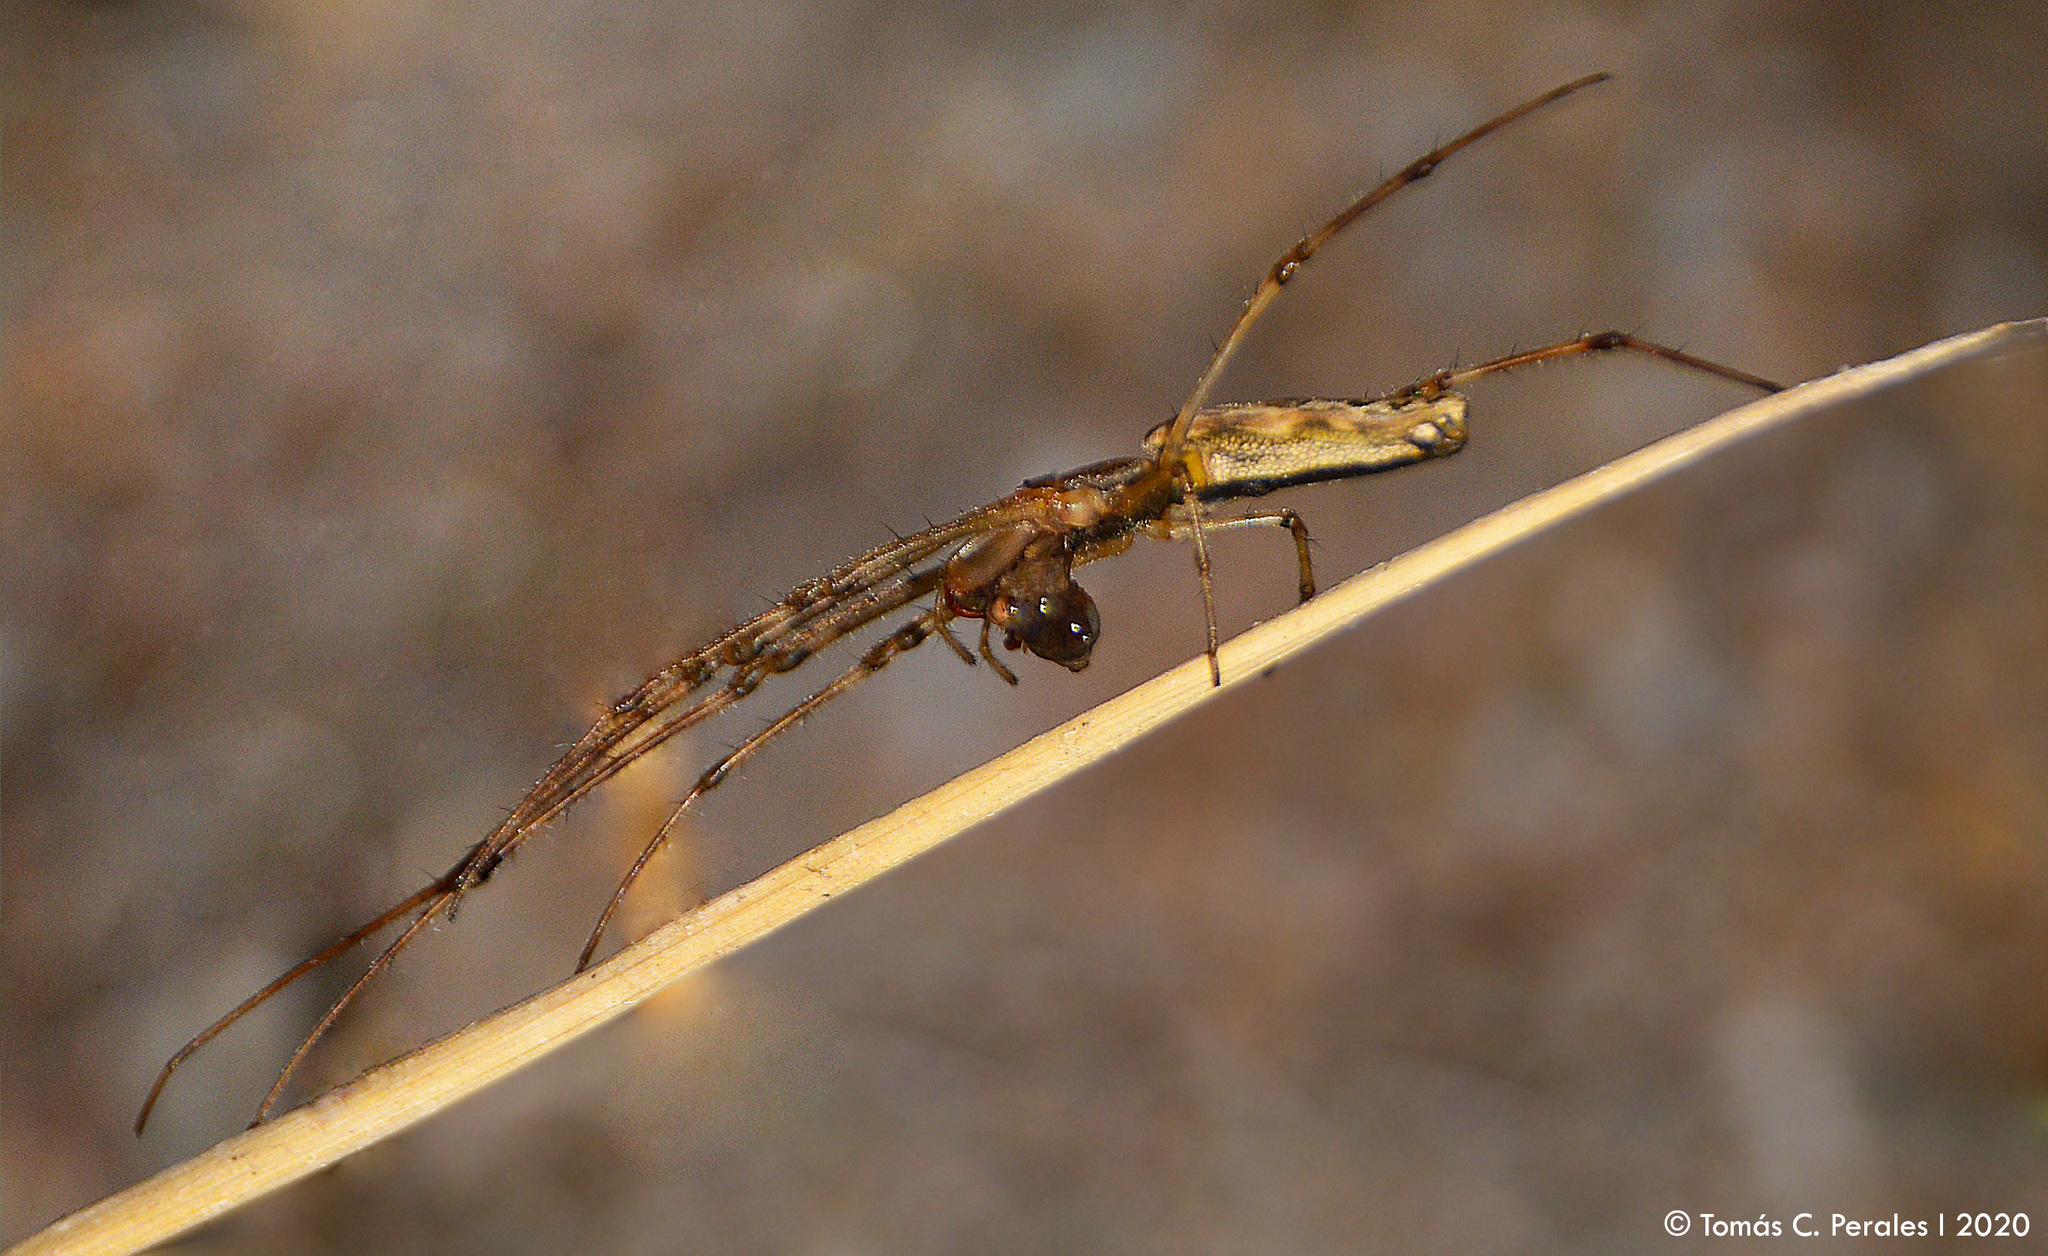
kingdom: Animalia
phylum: Arthropoda
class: Arachnida
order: Araneae
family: Tetragnathidae
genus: Tetragnatha
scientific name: Tetragnatha
